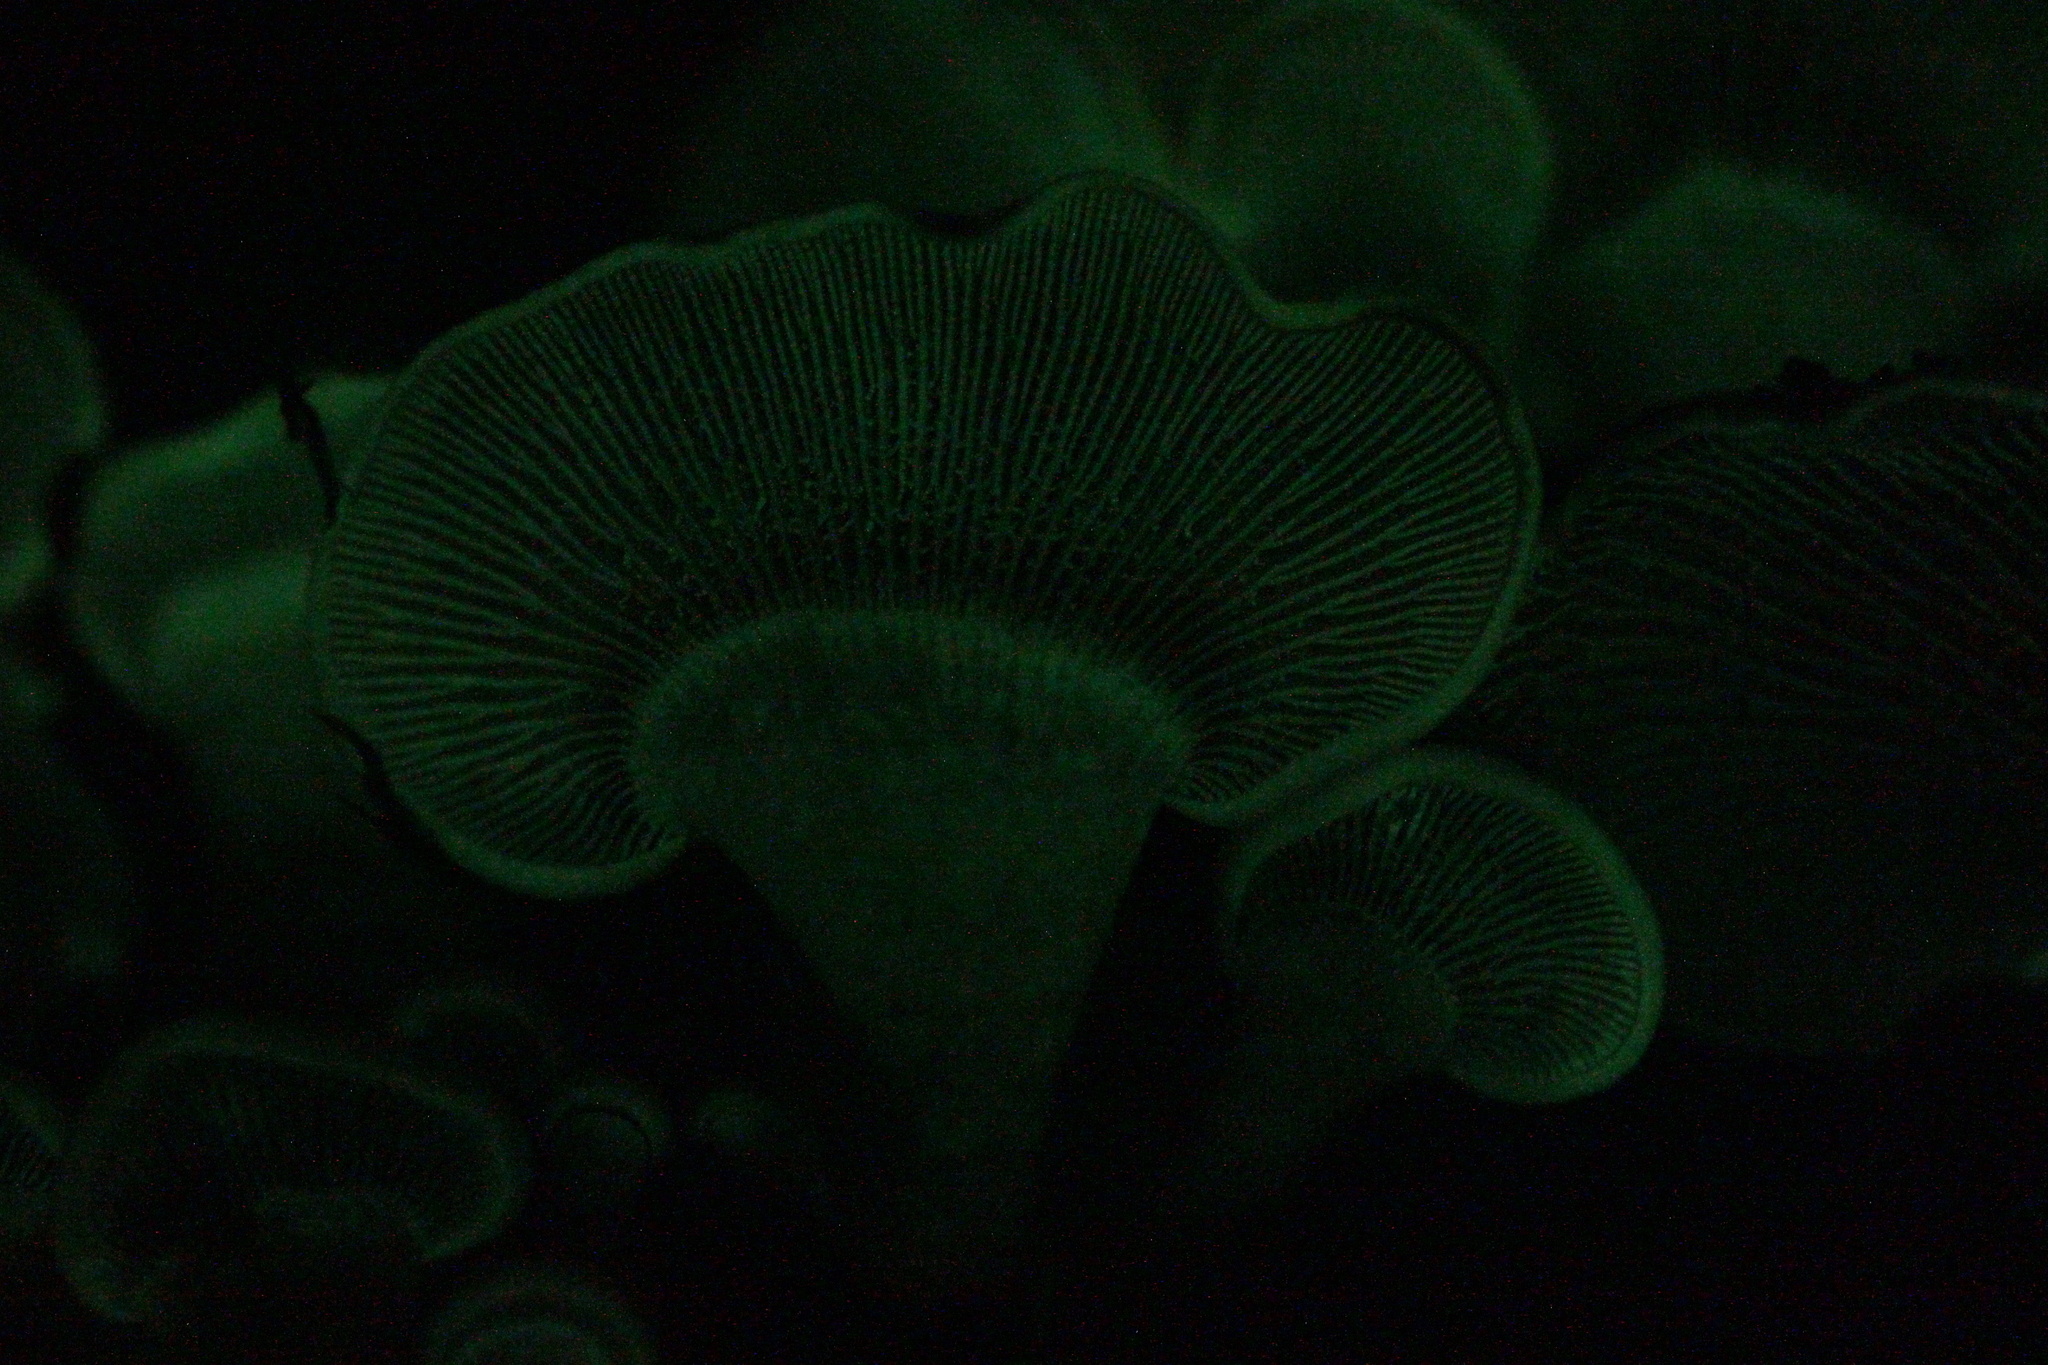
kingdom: Fungi
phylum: Basidiomycota
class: Agaricomycetes
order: Agaricales
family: Mycenaceae
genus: Panellus
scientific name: Panellus stipticus
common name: Bitter oysterling
